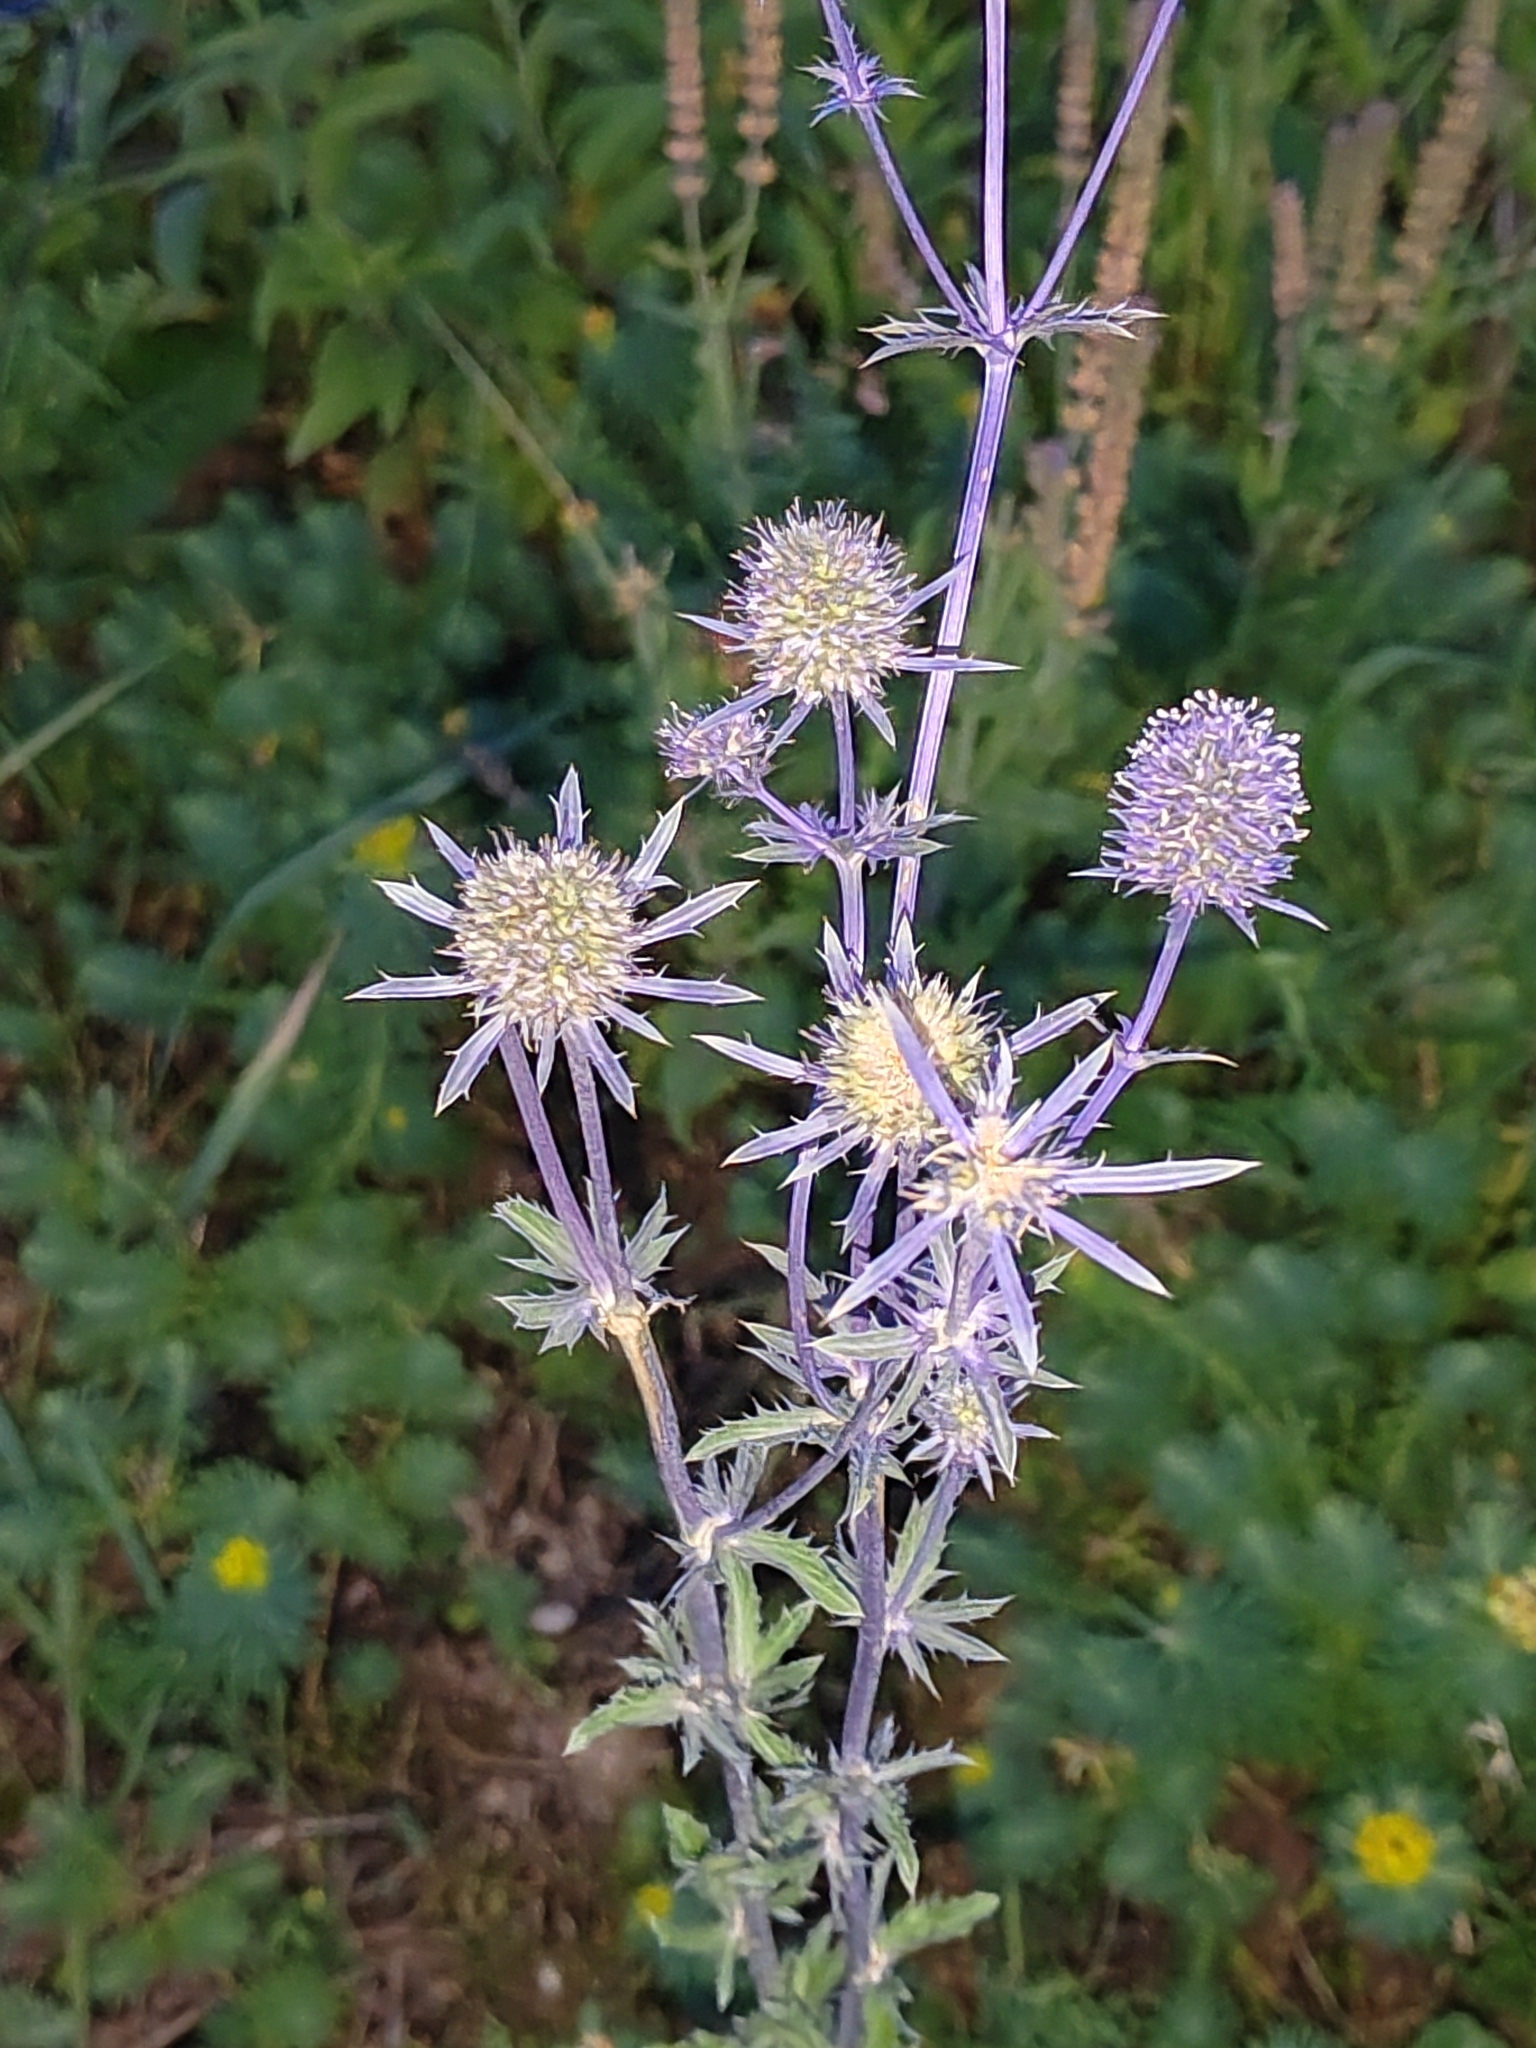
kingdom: Plantae
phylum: Tracheophyta
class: Magnoliopsida
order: Apiales
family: Apiaceae
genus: Eryngium
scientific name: Eryngium planum
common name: Blue eryngo
